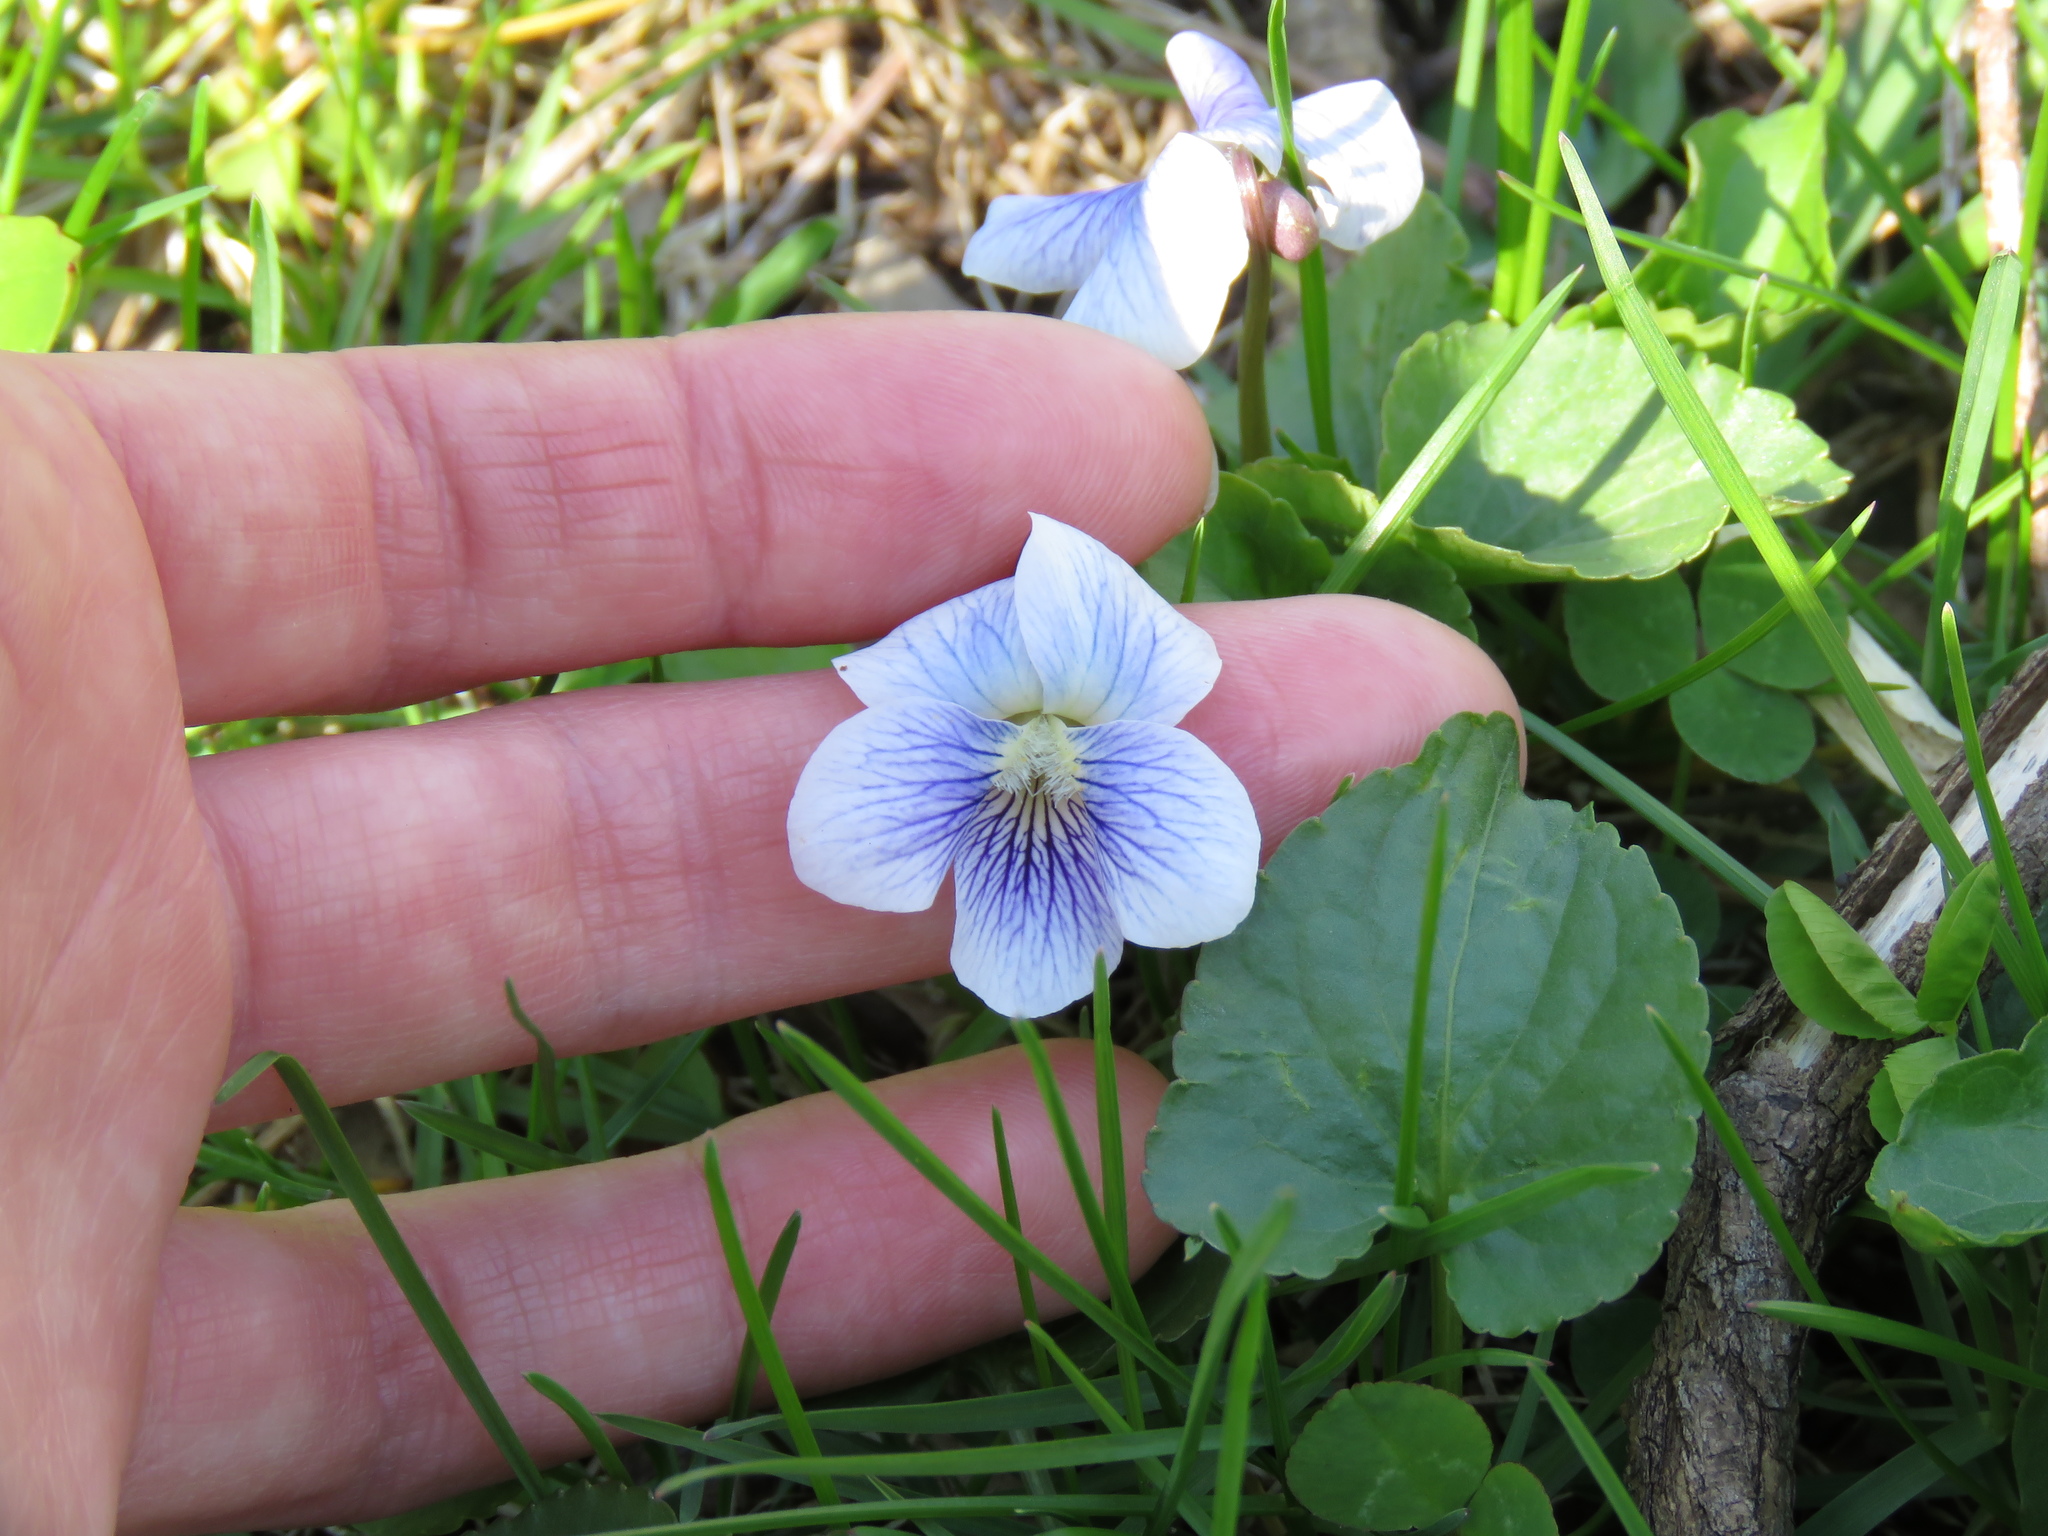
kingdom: Plantae
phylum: Tracheophyta
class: Magnoliopsida
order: Malpighiales
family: Violaceae
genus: Viola
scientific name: Viola sororia
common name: Dooryard violet
